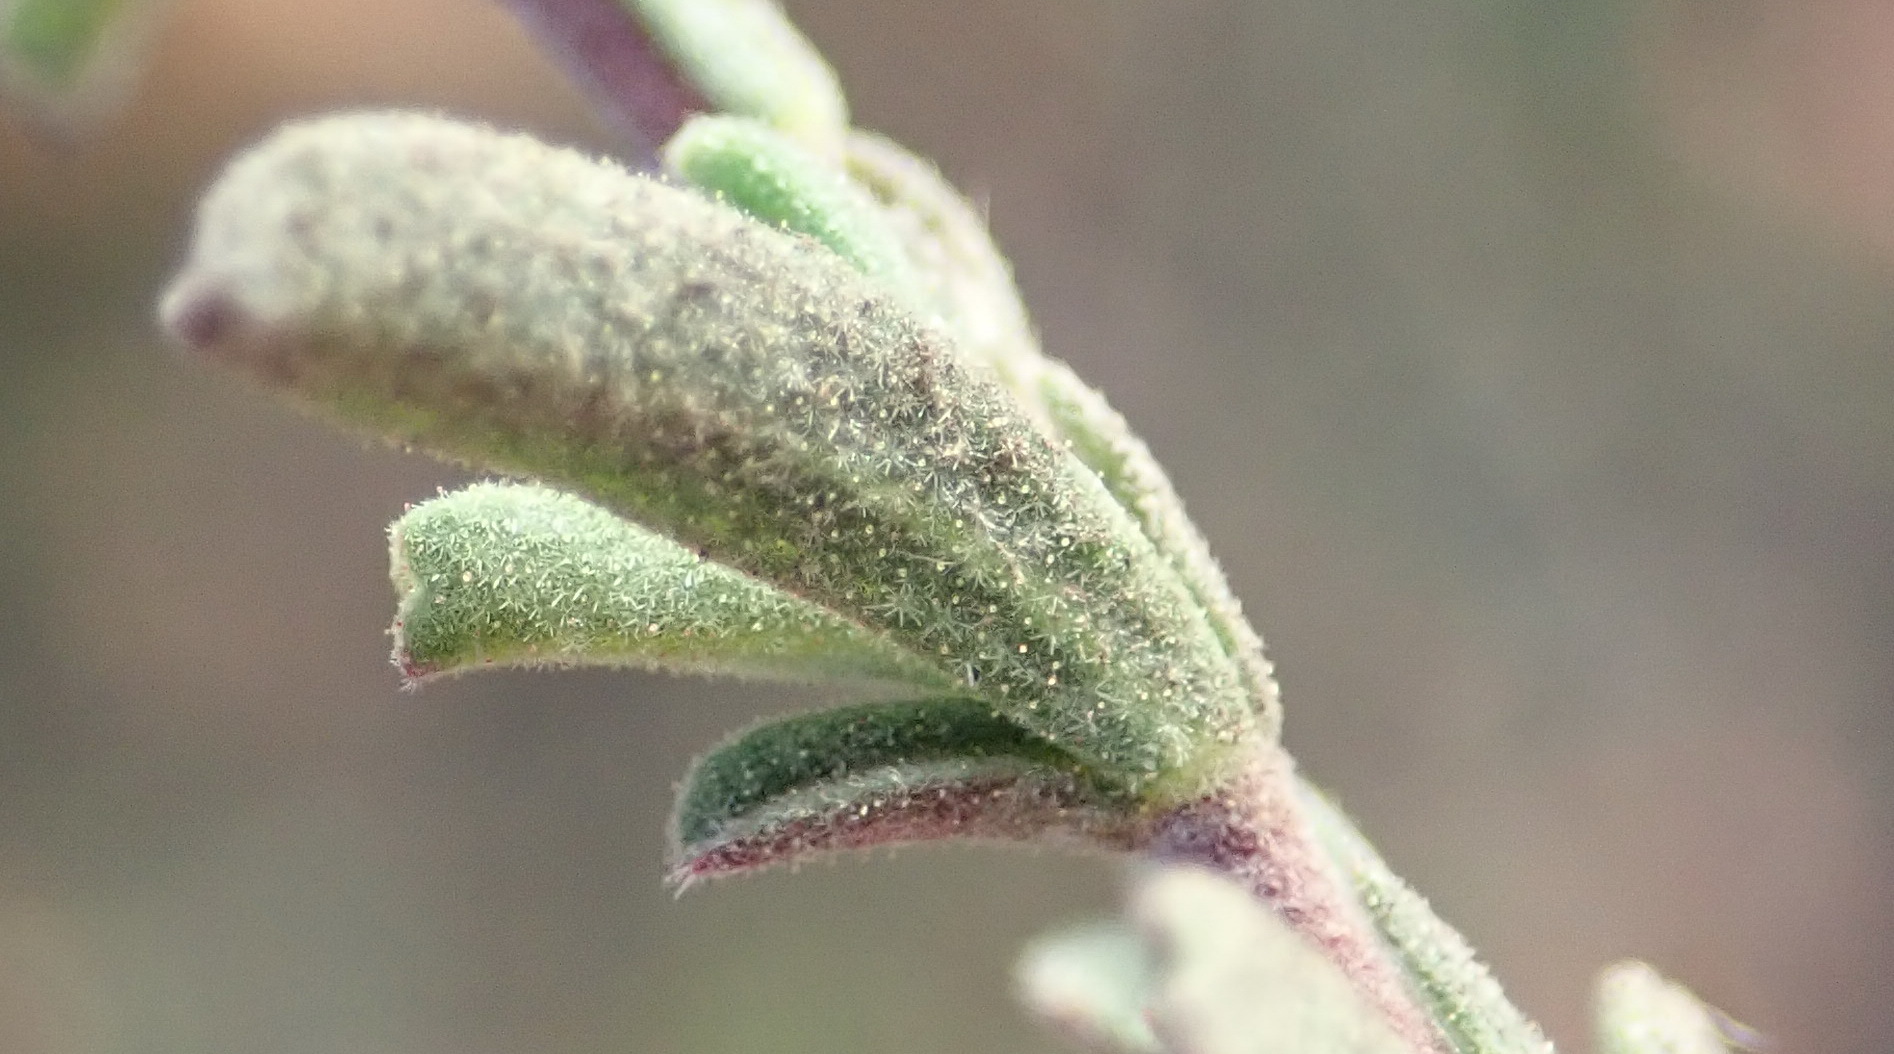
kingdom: Plantae
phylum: Tracheophyta
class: Magnoliopsida
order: Malvales
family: Malvaceae
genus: Hermannia
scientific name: Hermannia flammula
